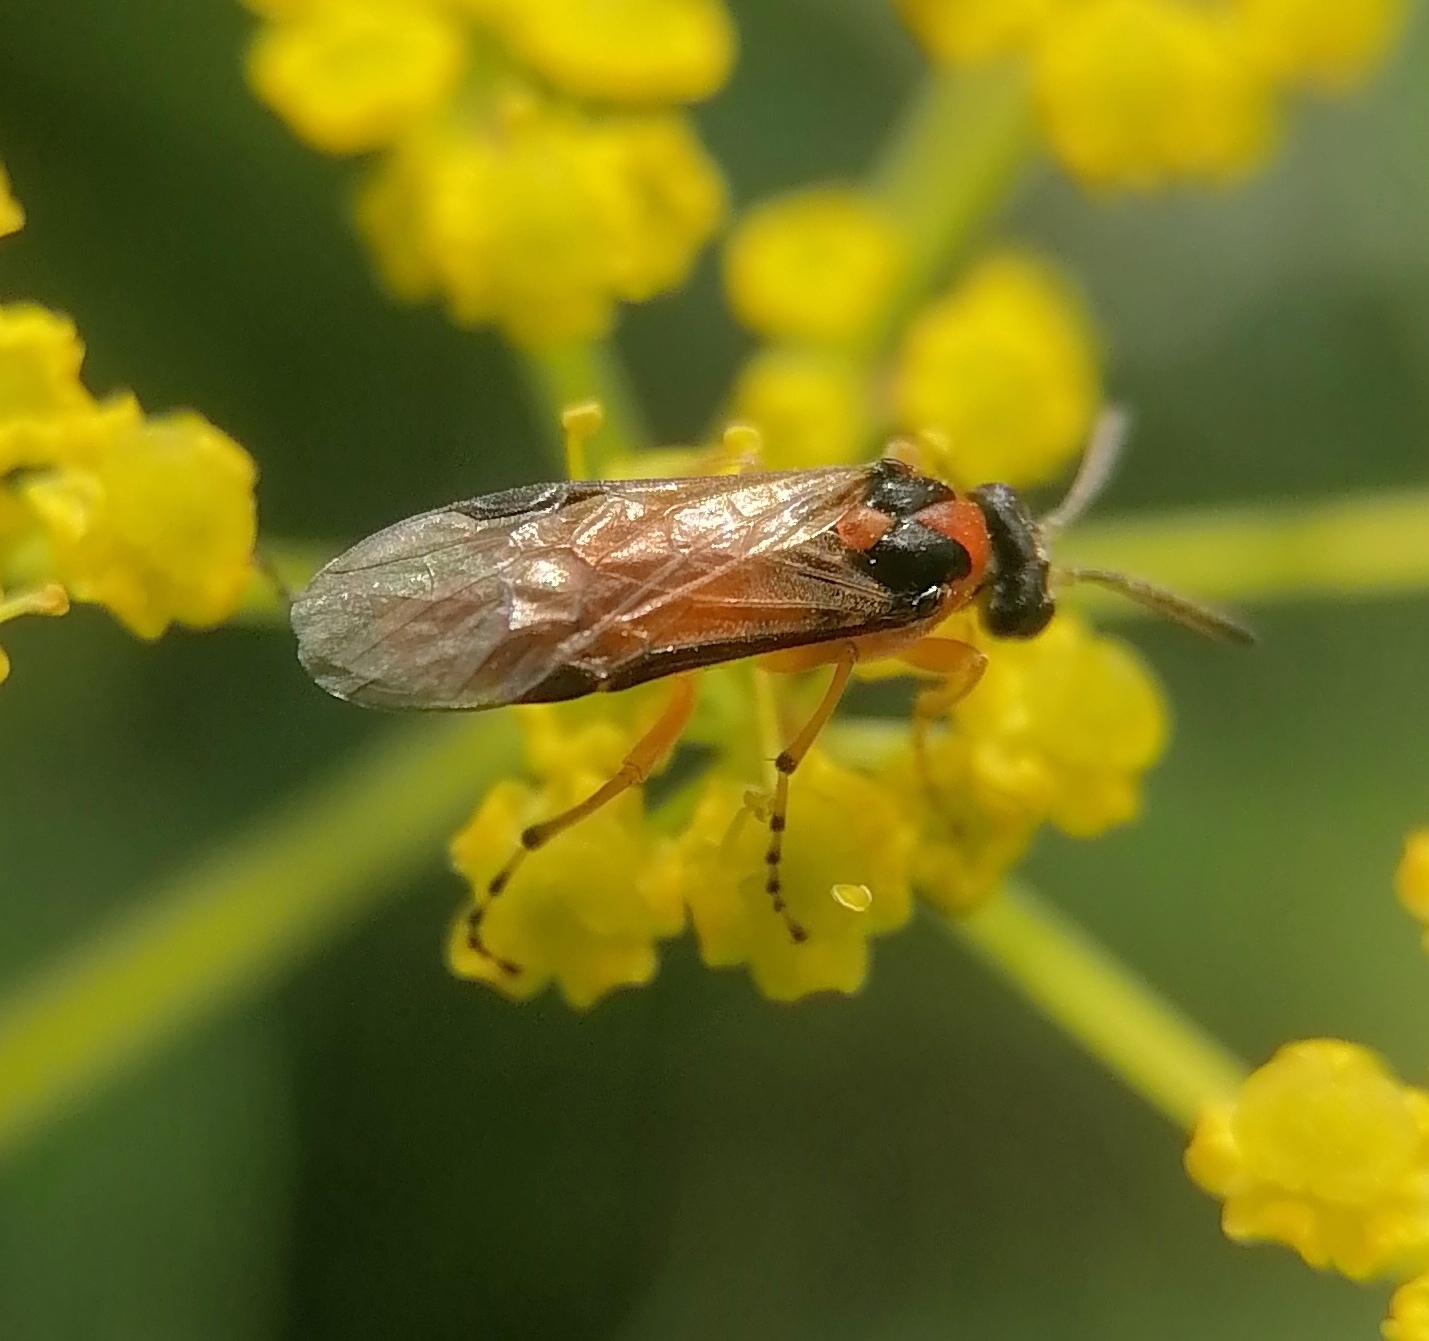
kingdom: Animalia
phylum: Arthropoda
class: Insecta
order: Hymenoptera
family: Tenthredinidae
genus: Athalia
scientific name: Athalia rosae
